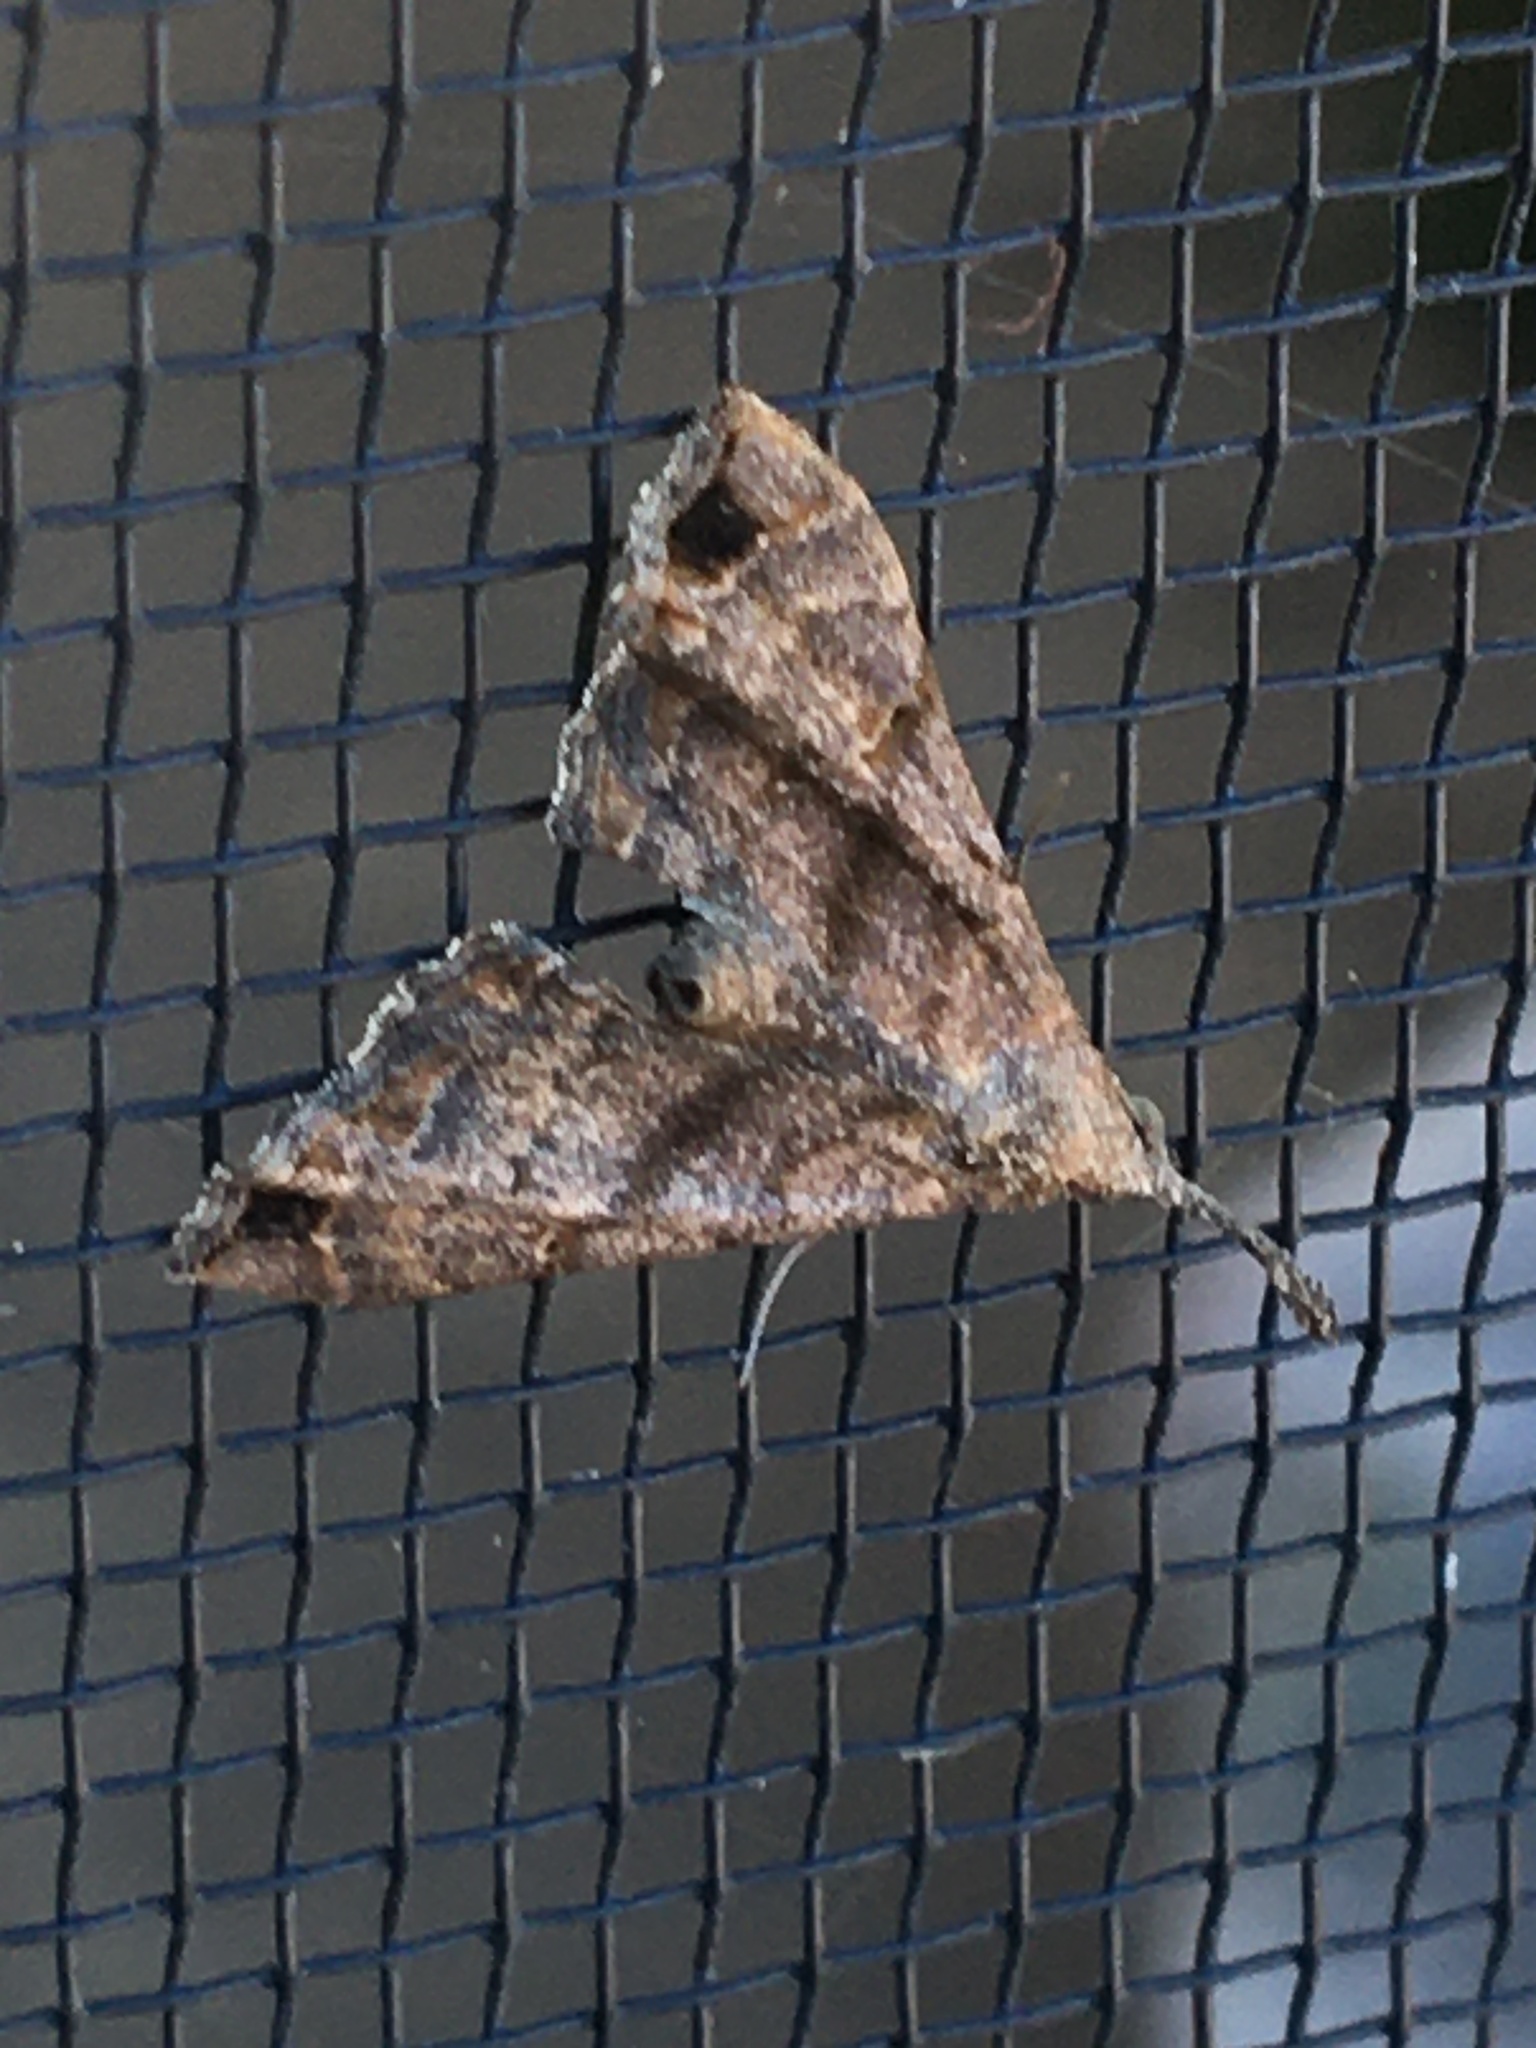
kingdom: Animalia
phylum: Arthropoda
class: Insecta
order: Lepidoptera
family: Erebidae
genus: Palthis
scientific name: Palthis asopialis
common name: Faint-spotted palthis moth
